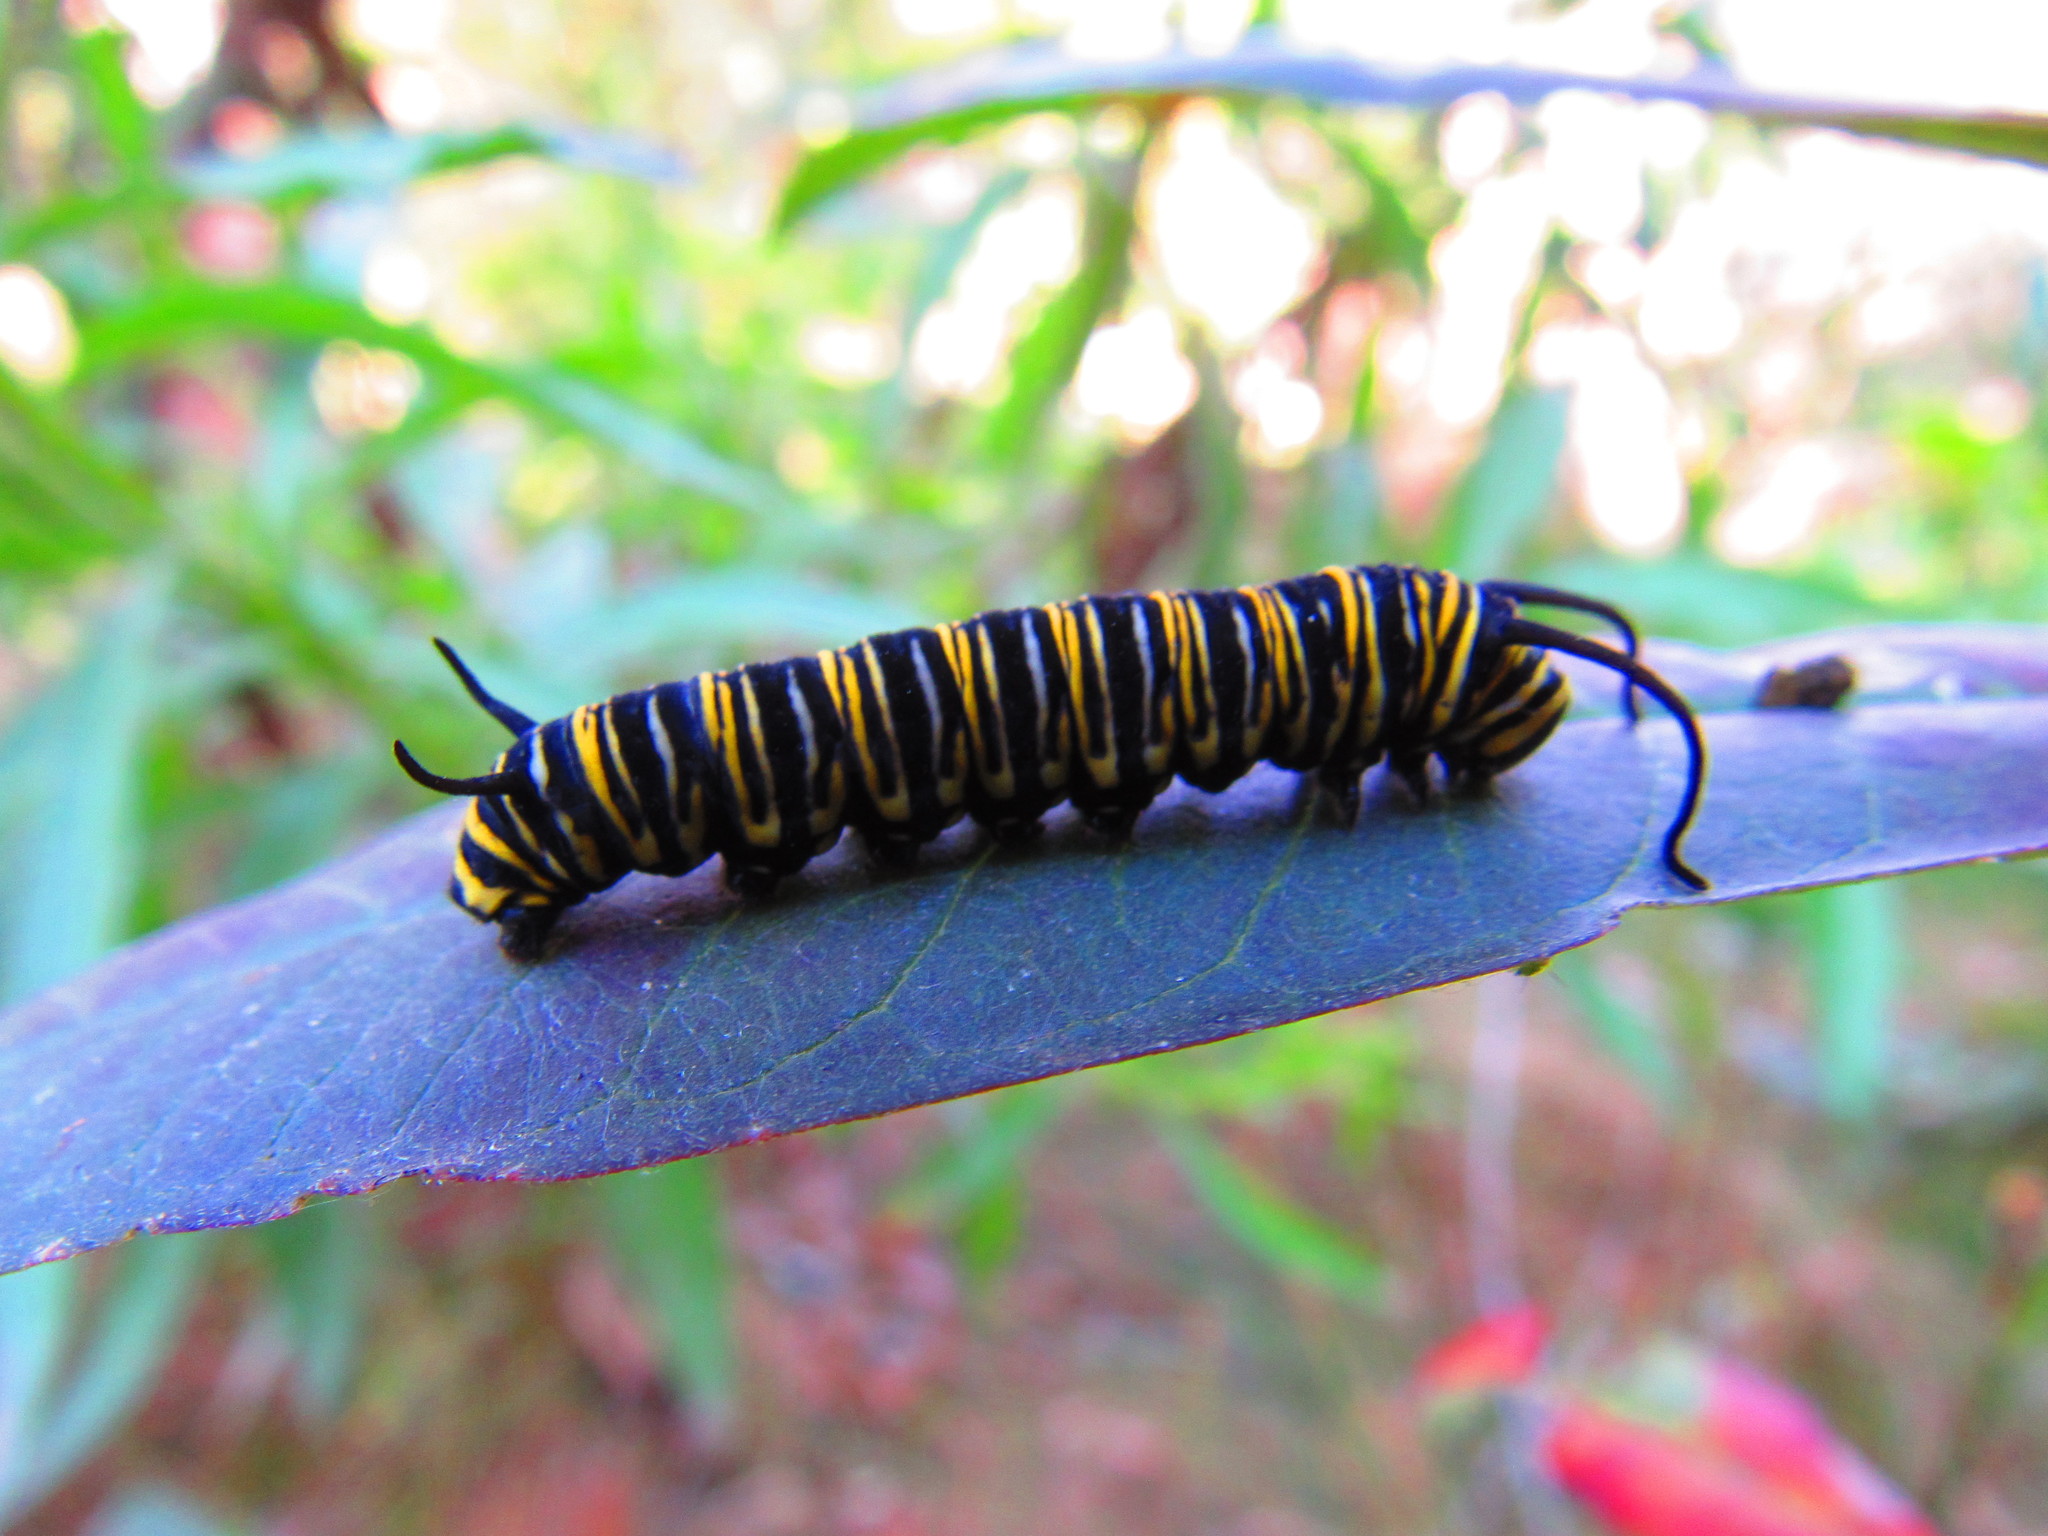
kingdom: Animalia
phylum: Arthropoda
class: Insecta
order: Lepidoptera
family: Nymphalidae
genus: Danaus
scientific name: Danaus plexippus
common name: Monarch
